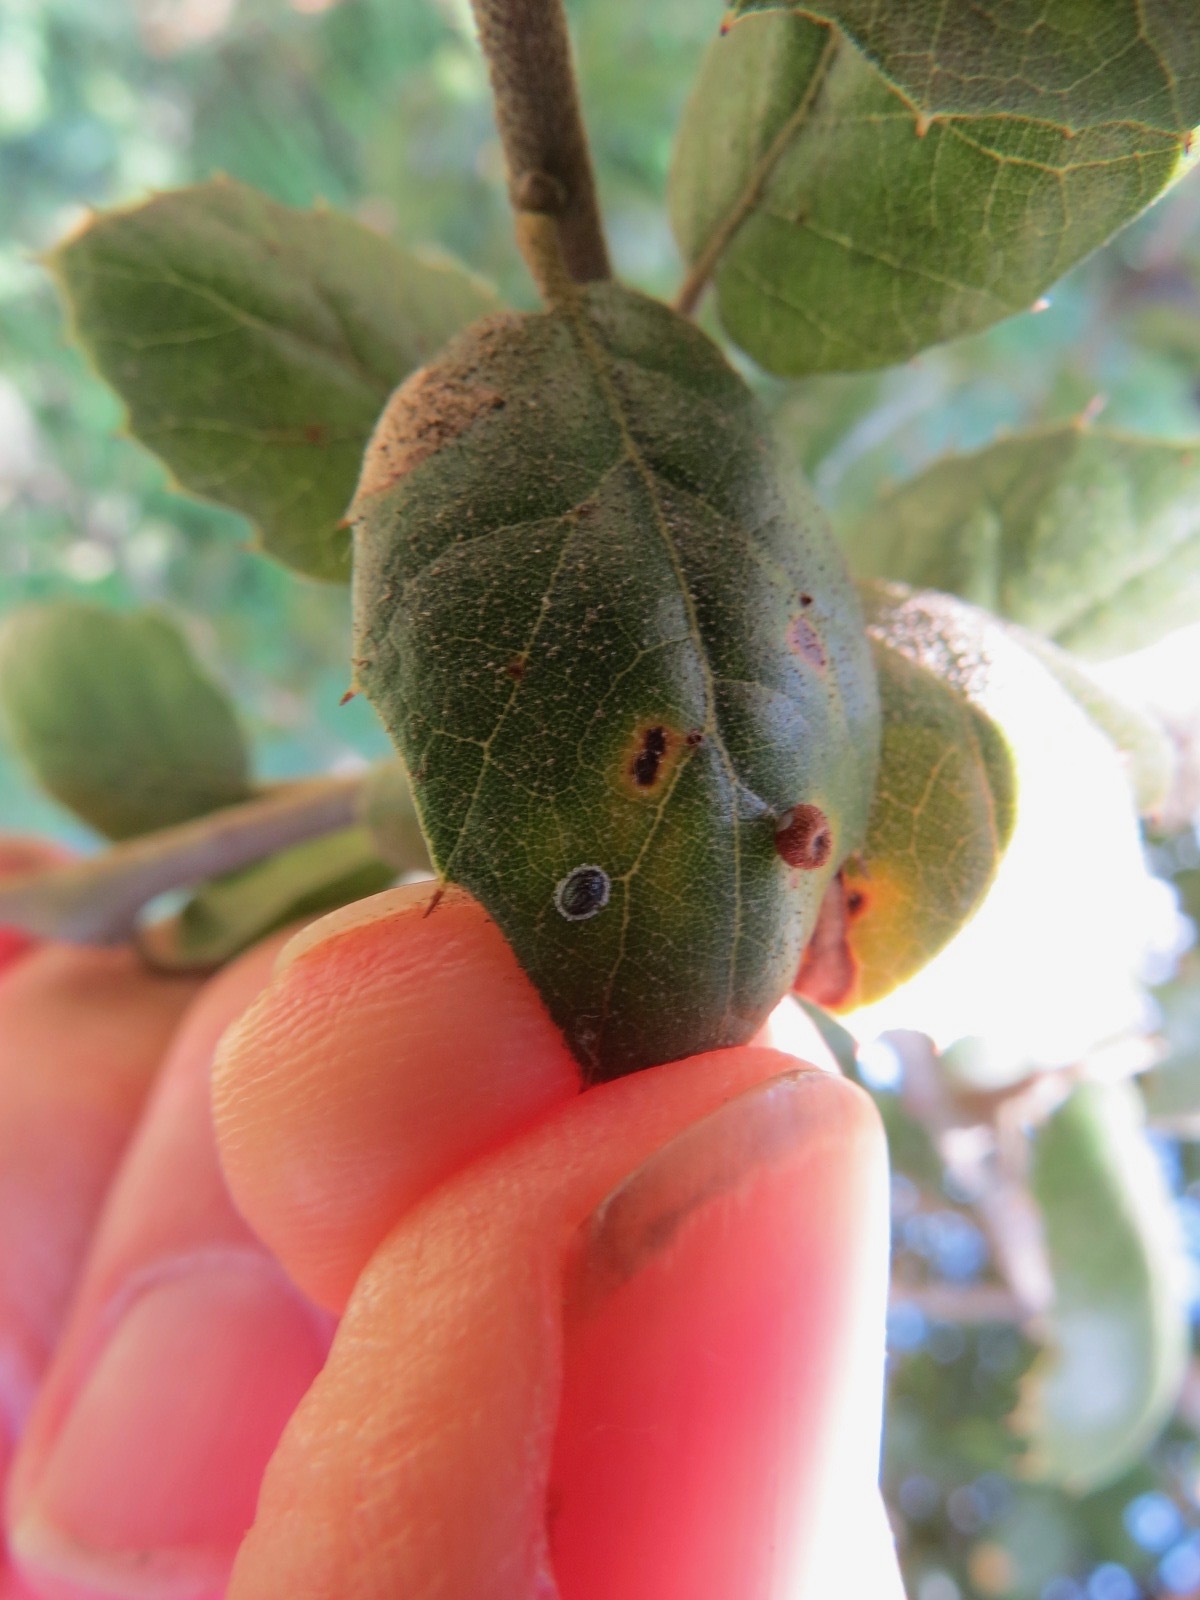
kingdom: Animalia
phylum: Arthropoda
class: Insecta
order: Hemiptera
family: Aleyrodidae
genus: Tetraleurodes
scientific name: Tetraleurodes perileuca
